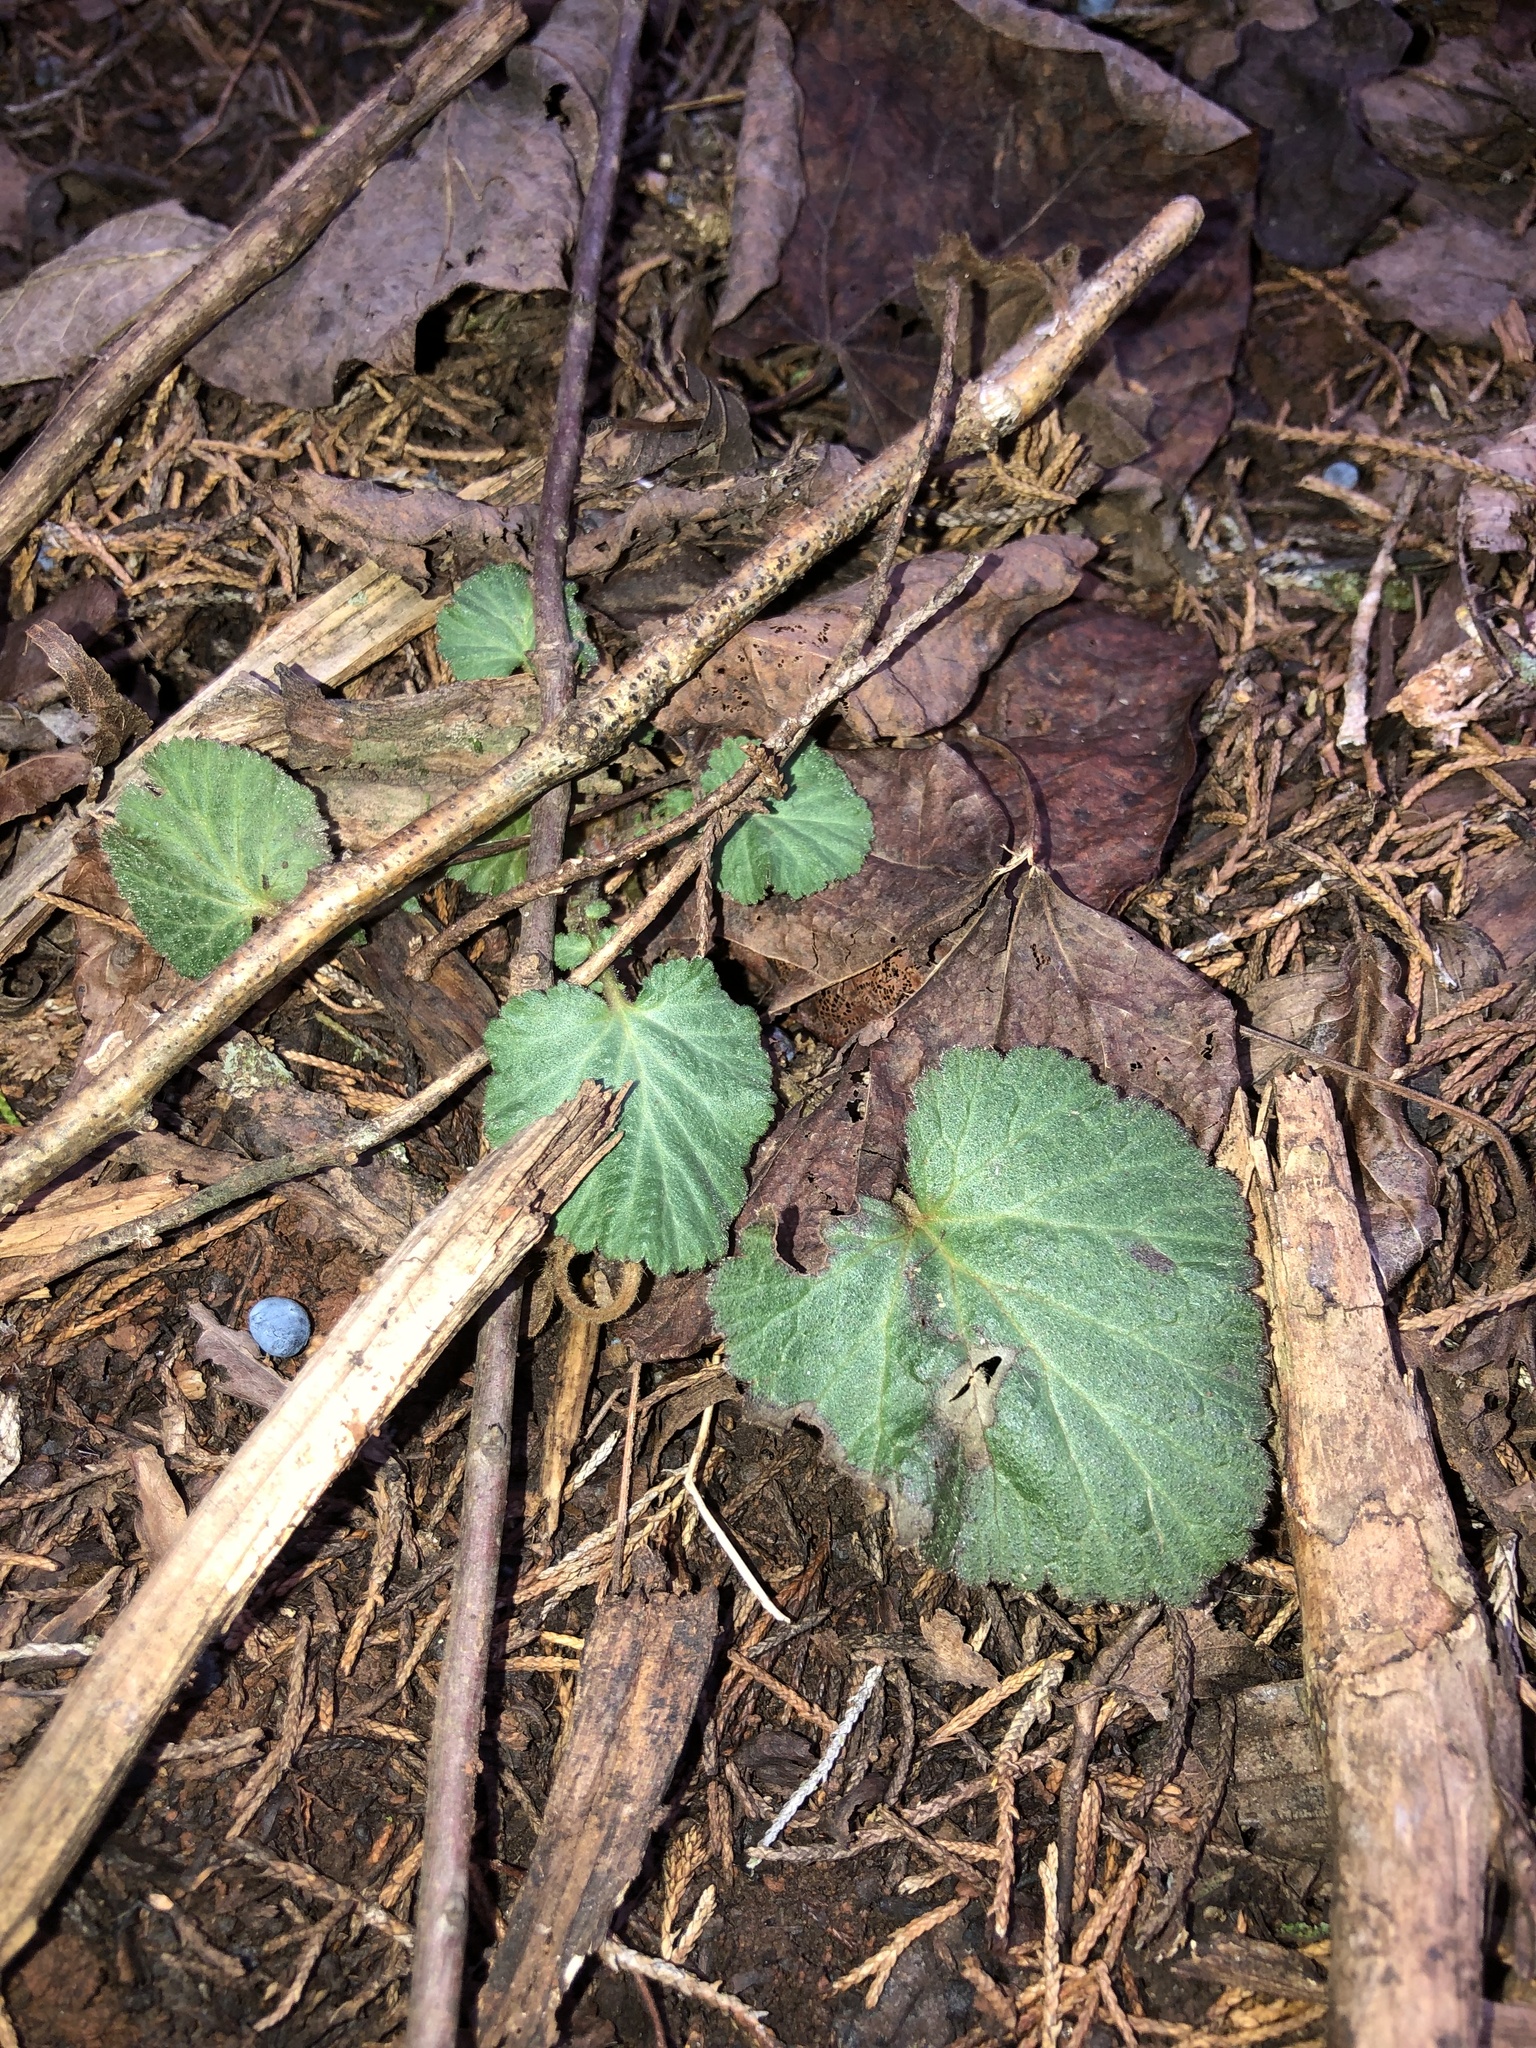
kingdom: Plantae
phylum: Tracheophyta
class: Magnoliopsida
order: Rosales
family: Rosaceae
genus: Geum
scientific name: Geum canadense
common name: White avens
